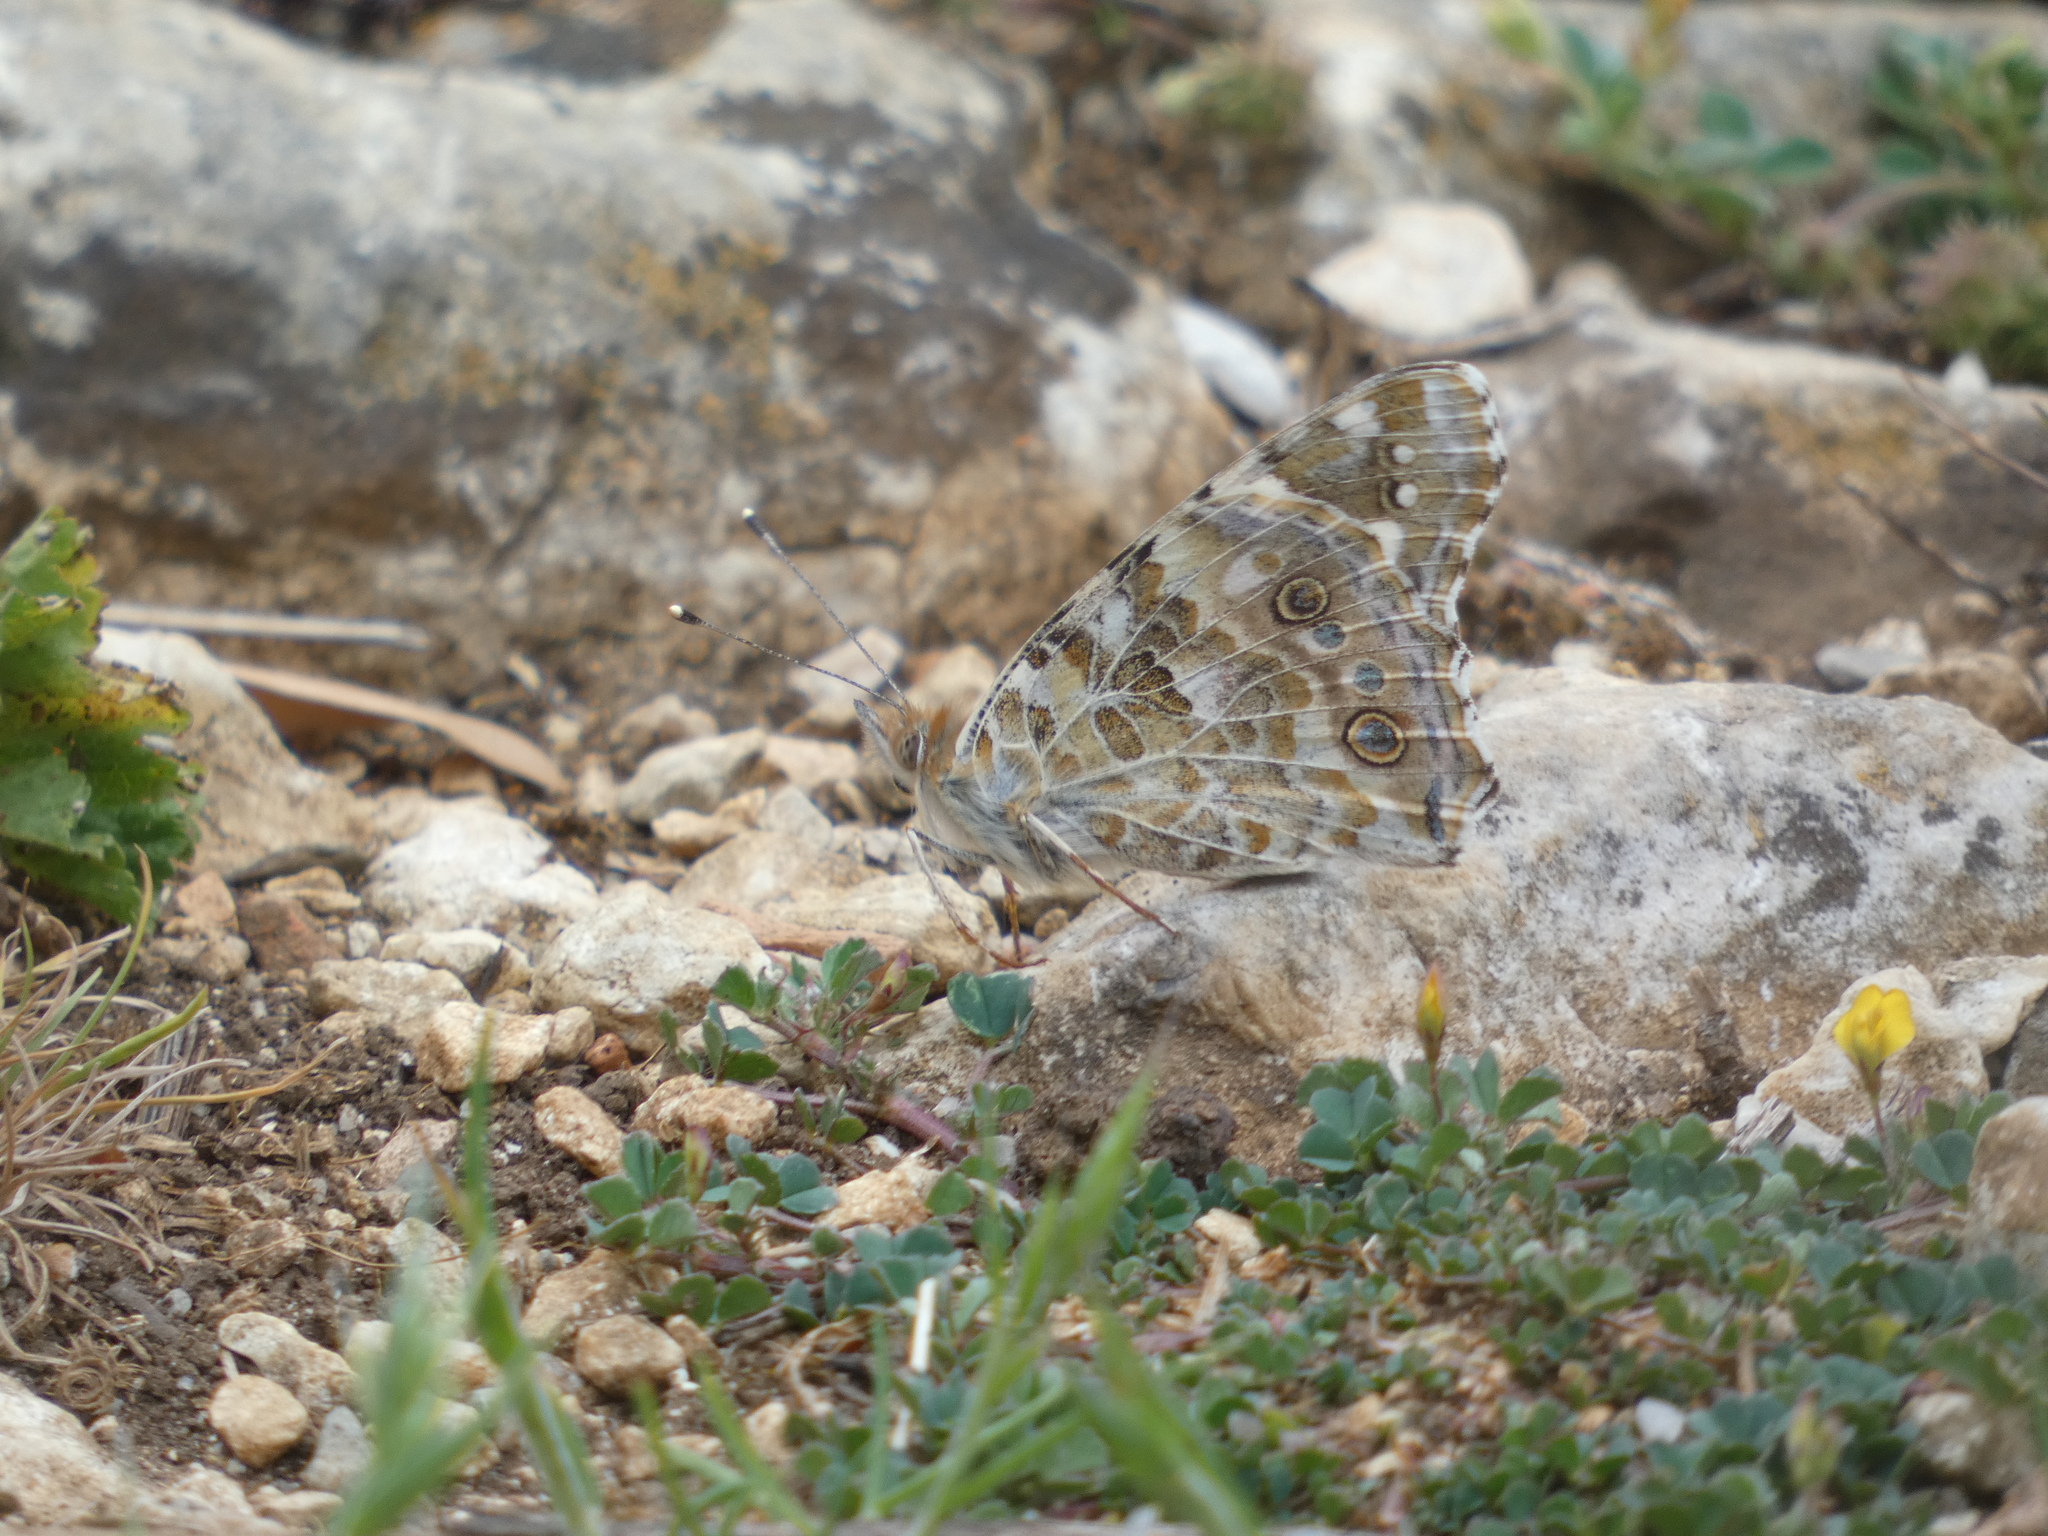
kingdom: Animalia
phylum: Arthropoda
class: Insecta
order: Lepidoptera
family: Nymphalidae
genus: Vanessa
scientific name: Vanessa cardui
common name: Painted lady
